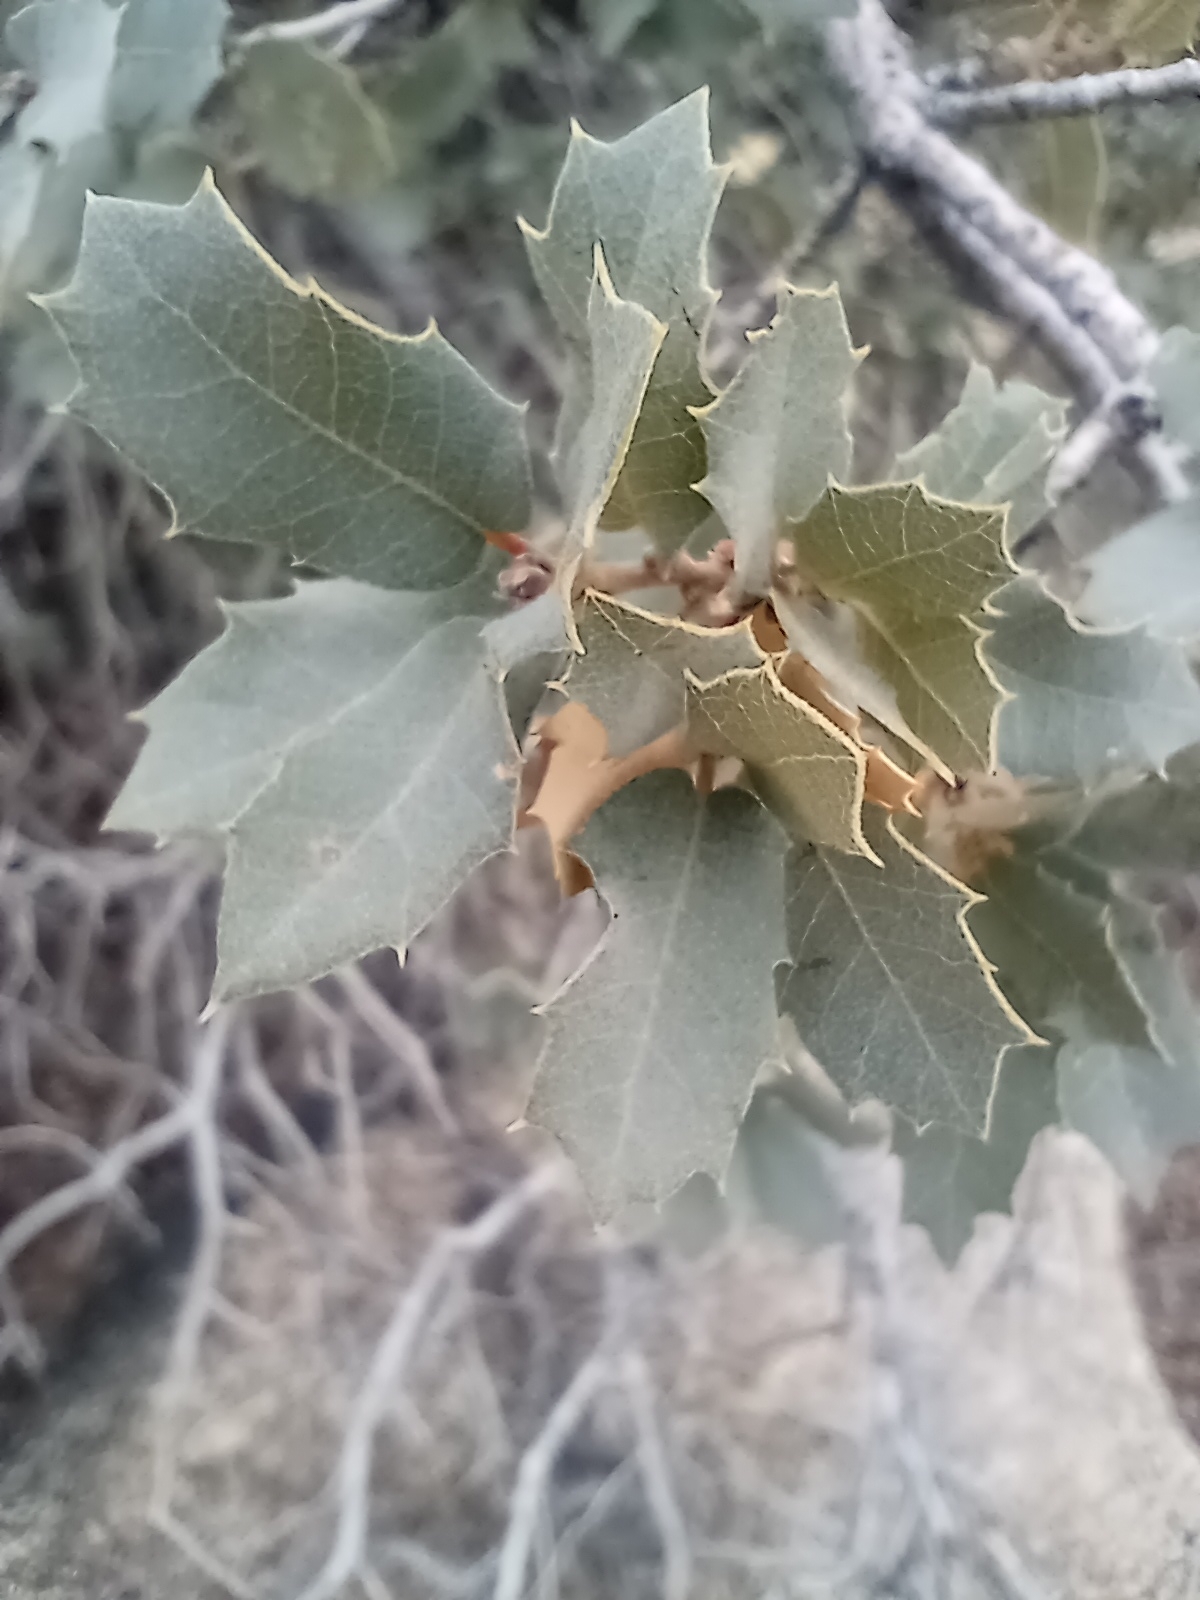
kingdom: Plantae
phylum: Tracheophyta
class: Magnoliopsida
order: Fagales
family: Fagaceae
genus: Quercus
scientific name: Quercus turbinella
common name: Sonoran scrub oak
